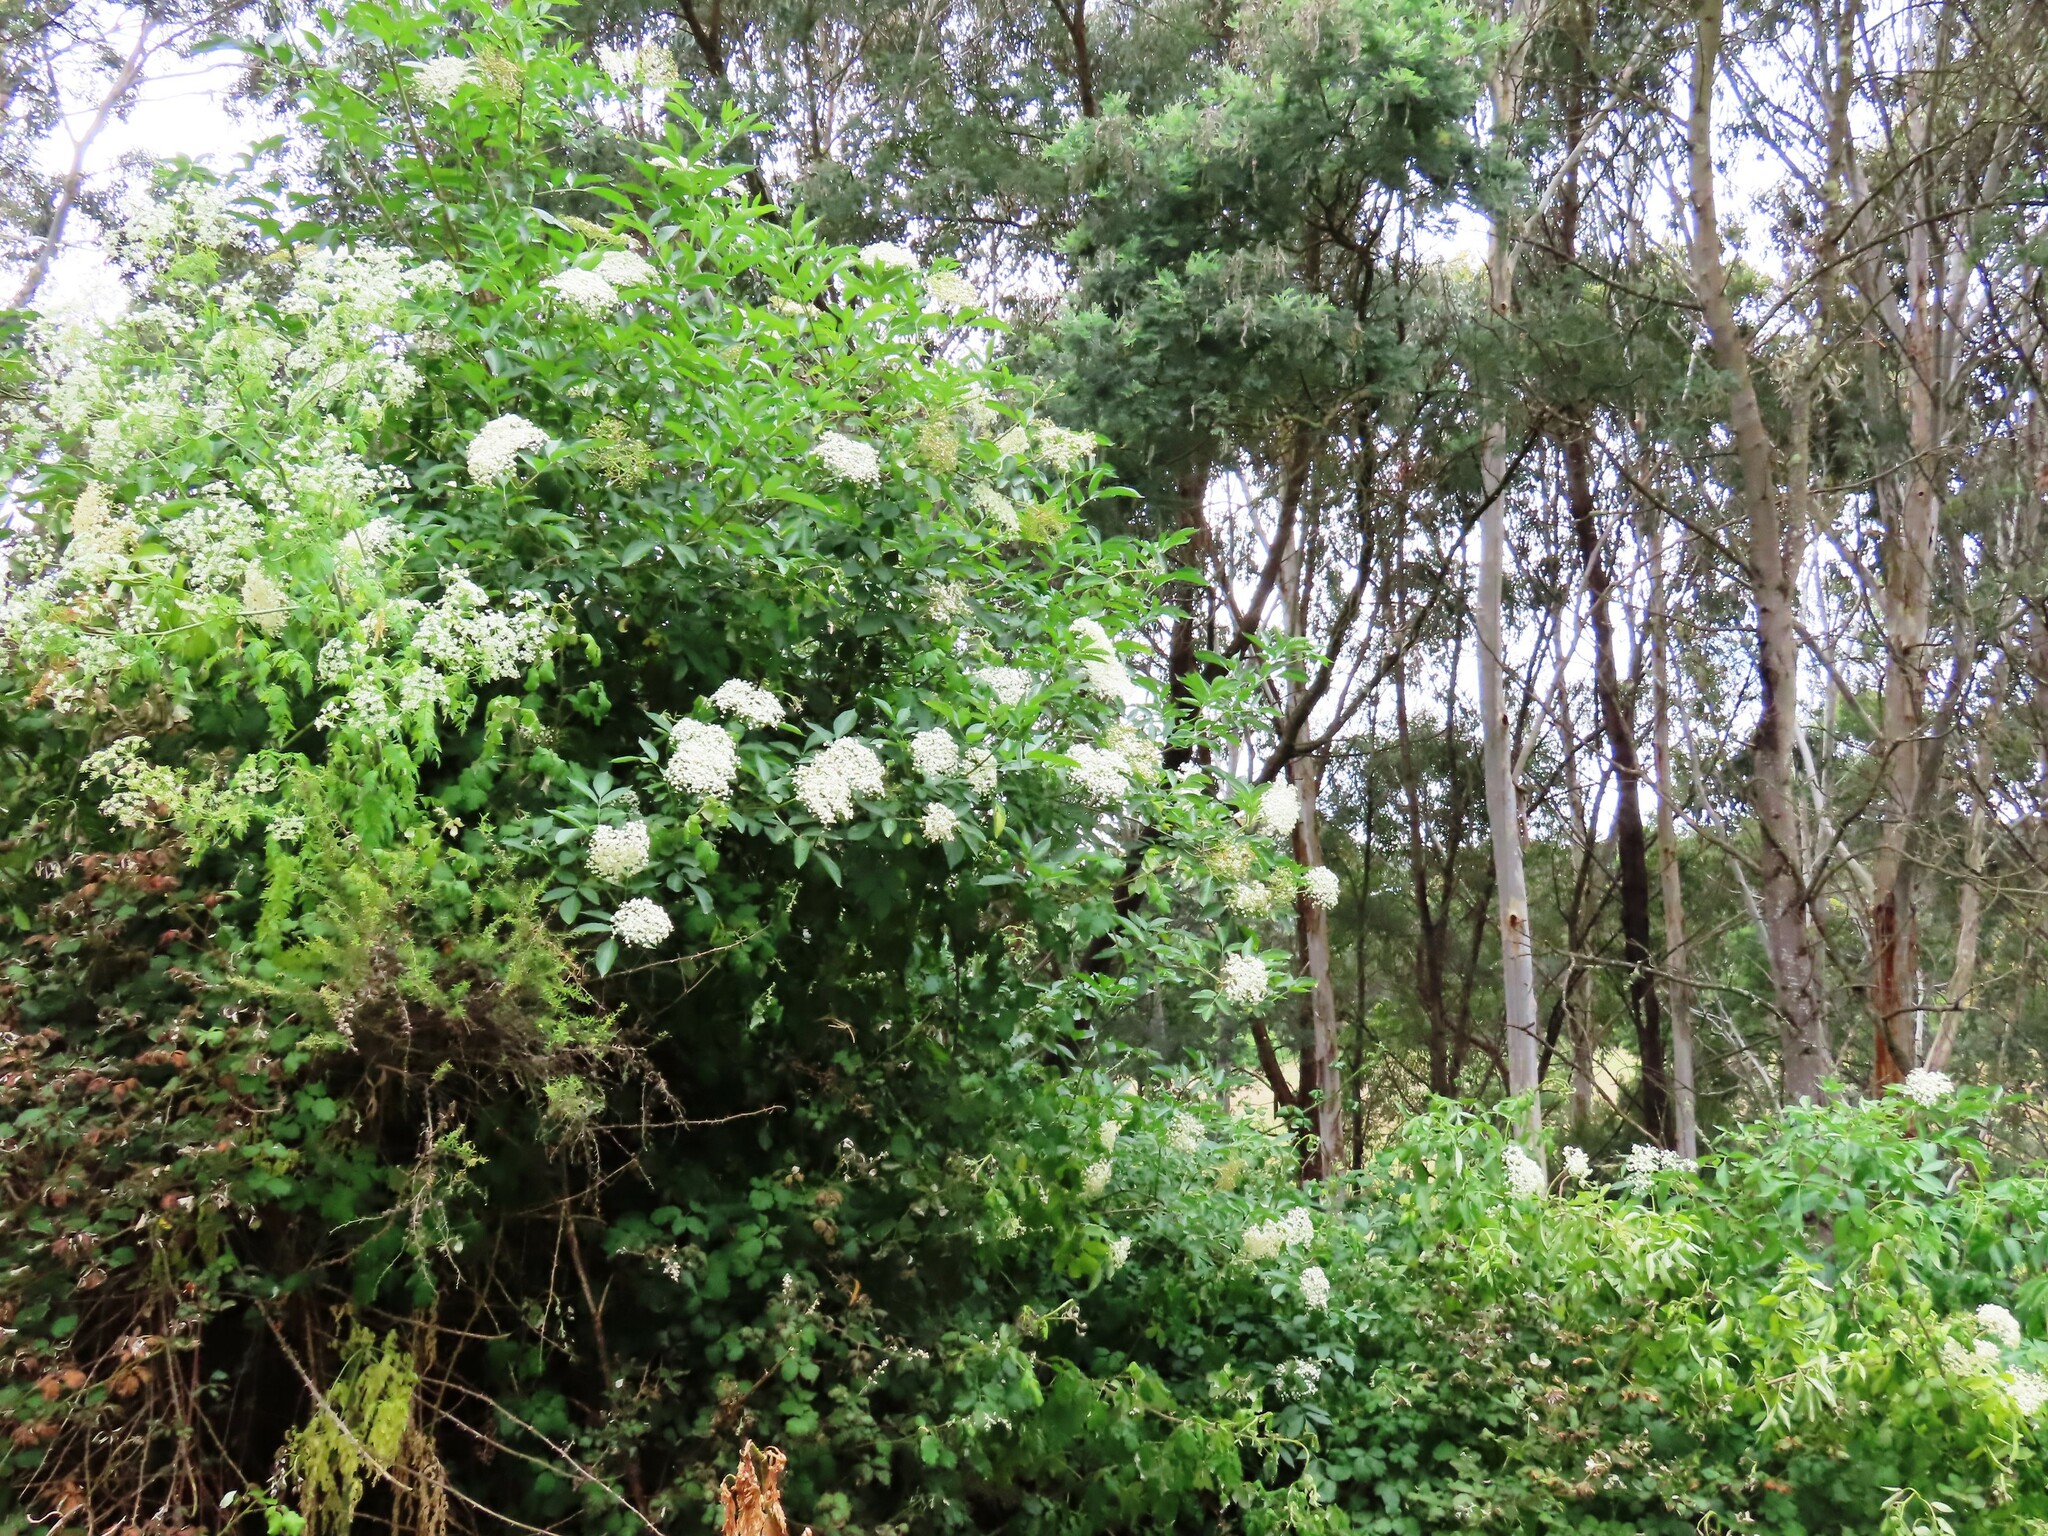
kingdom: Plantae
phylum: Tracheophyta
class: Magnoliopsida
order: Dipsacales
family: Viburnaceae
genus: Sambucus
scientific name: Sambucus nigra
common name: Elder
